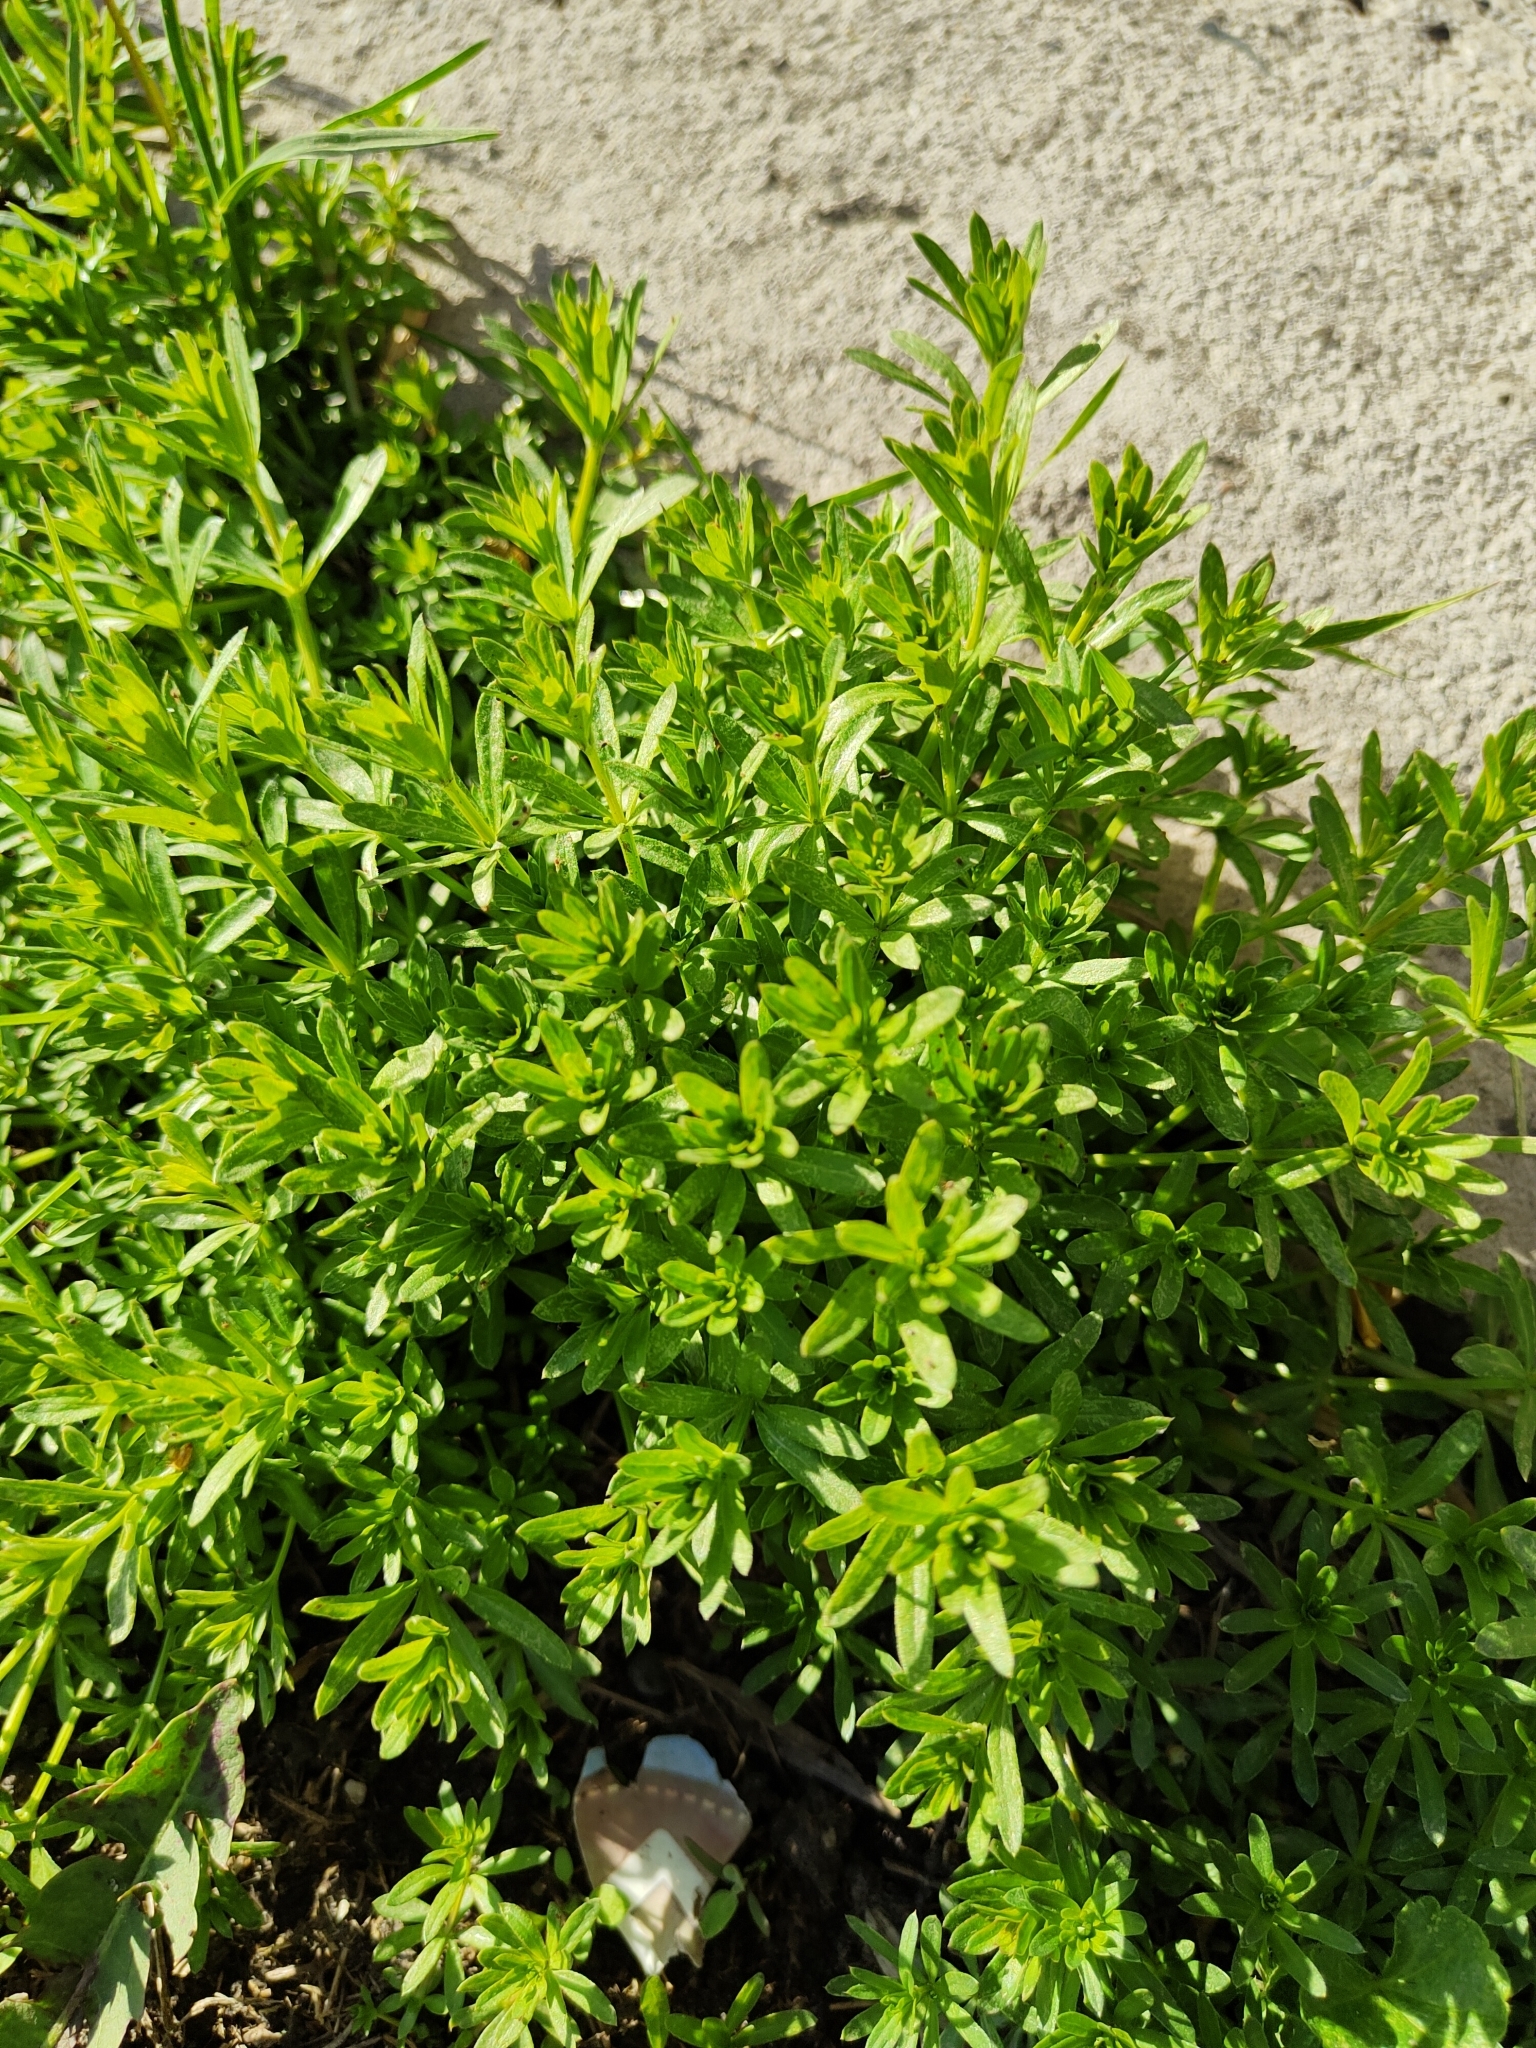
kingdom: Plantae
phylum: Tracheophyta
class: Magnoliopsida
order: Gentianales
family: Rubiaceae
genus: Galium
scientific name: Galium mollugo
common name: Hedge bedstraw
